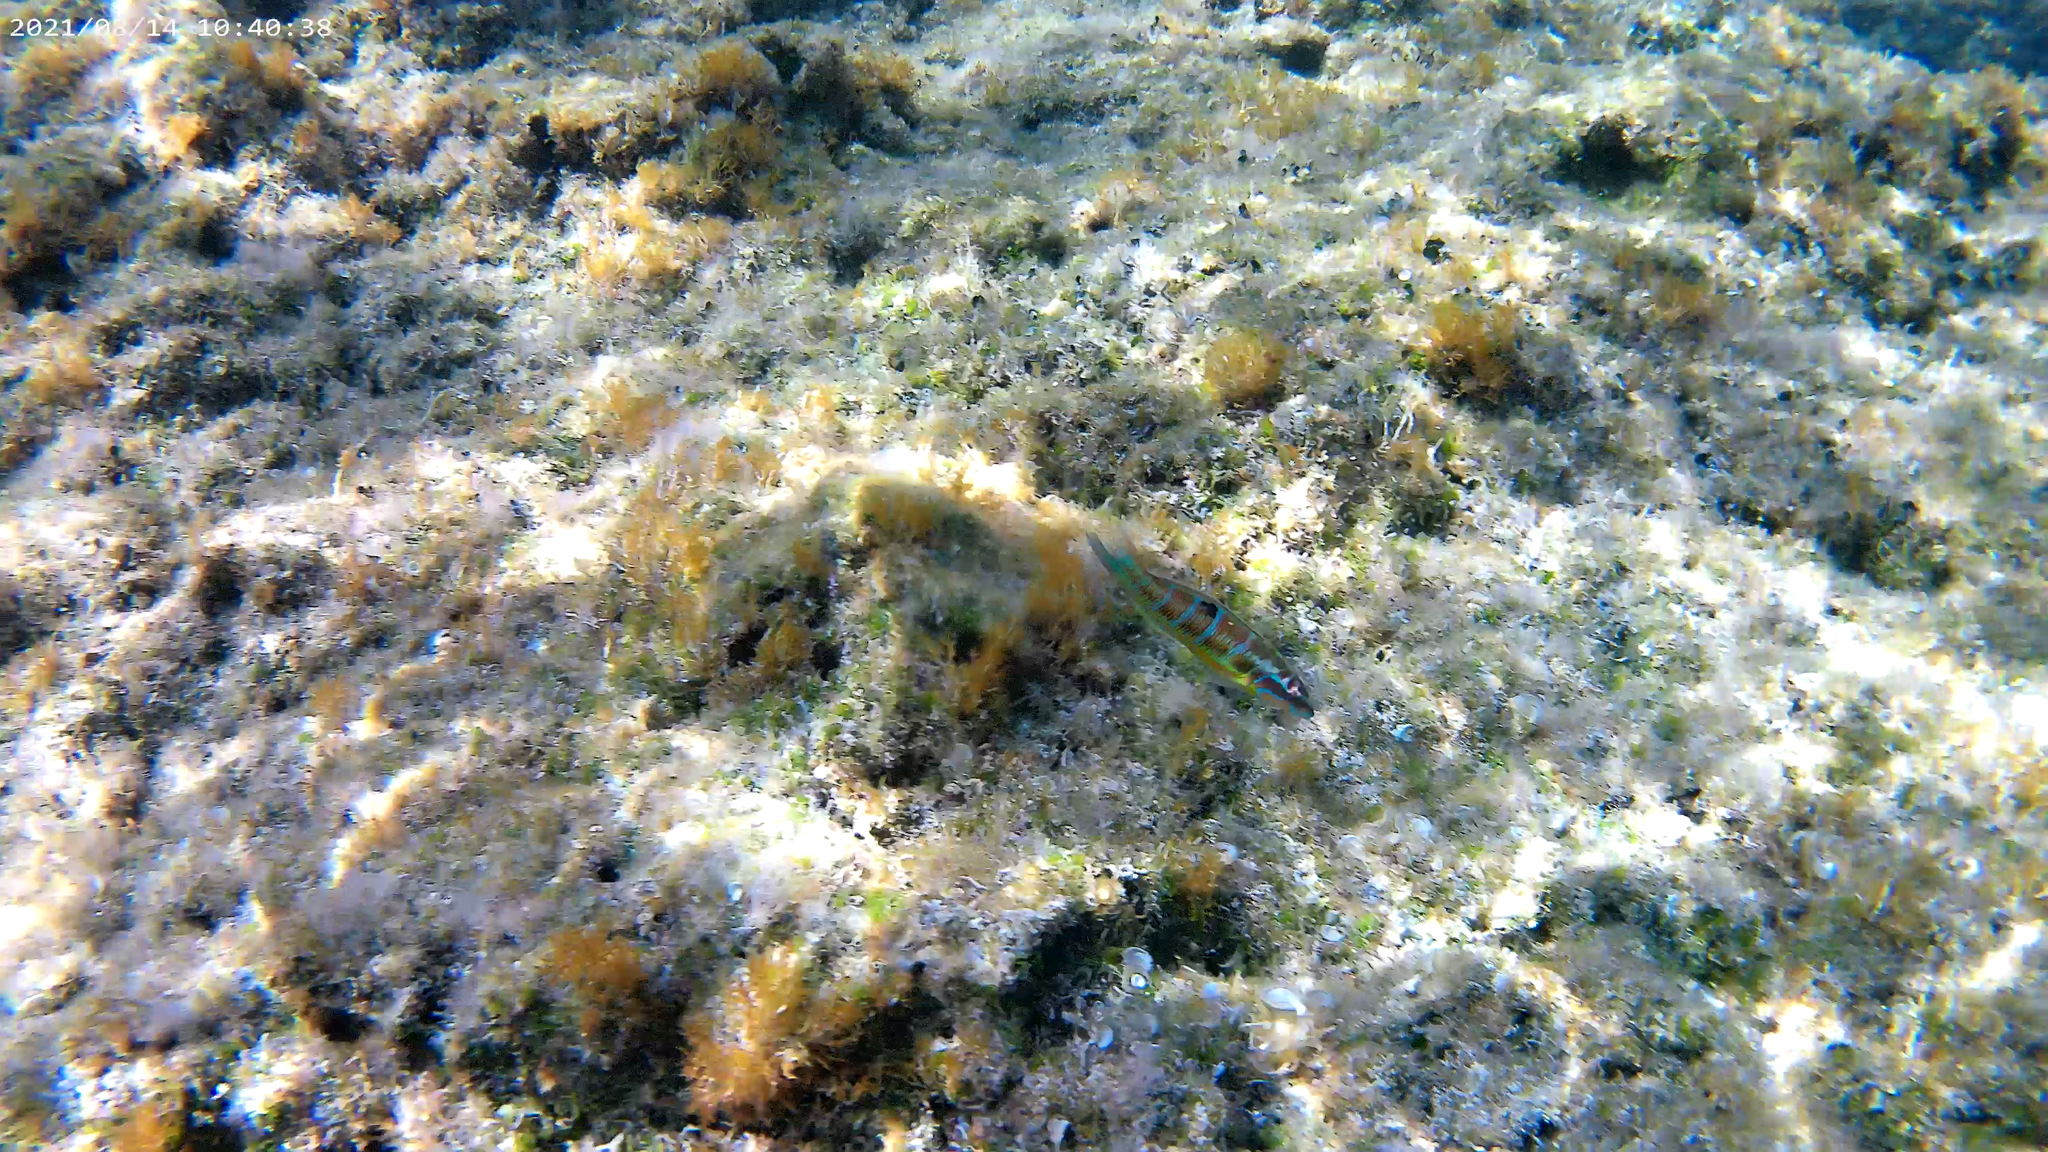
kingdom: Animalia
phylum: Chordata
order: Perciformes
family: Labridae
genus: Thalassoma
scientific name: Thalassoma pavo
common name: Ornate wrasse
